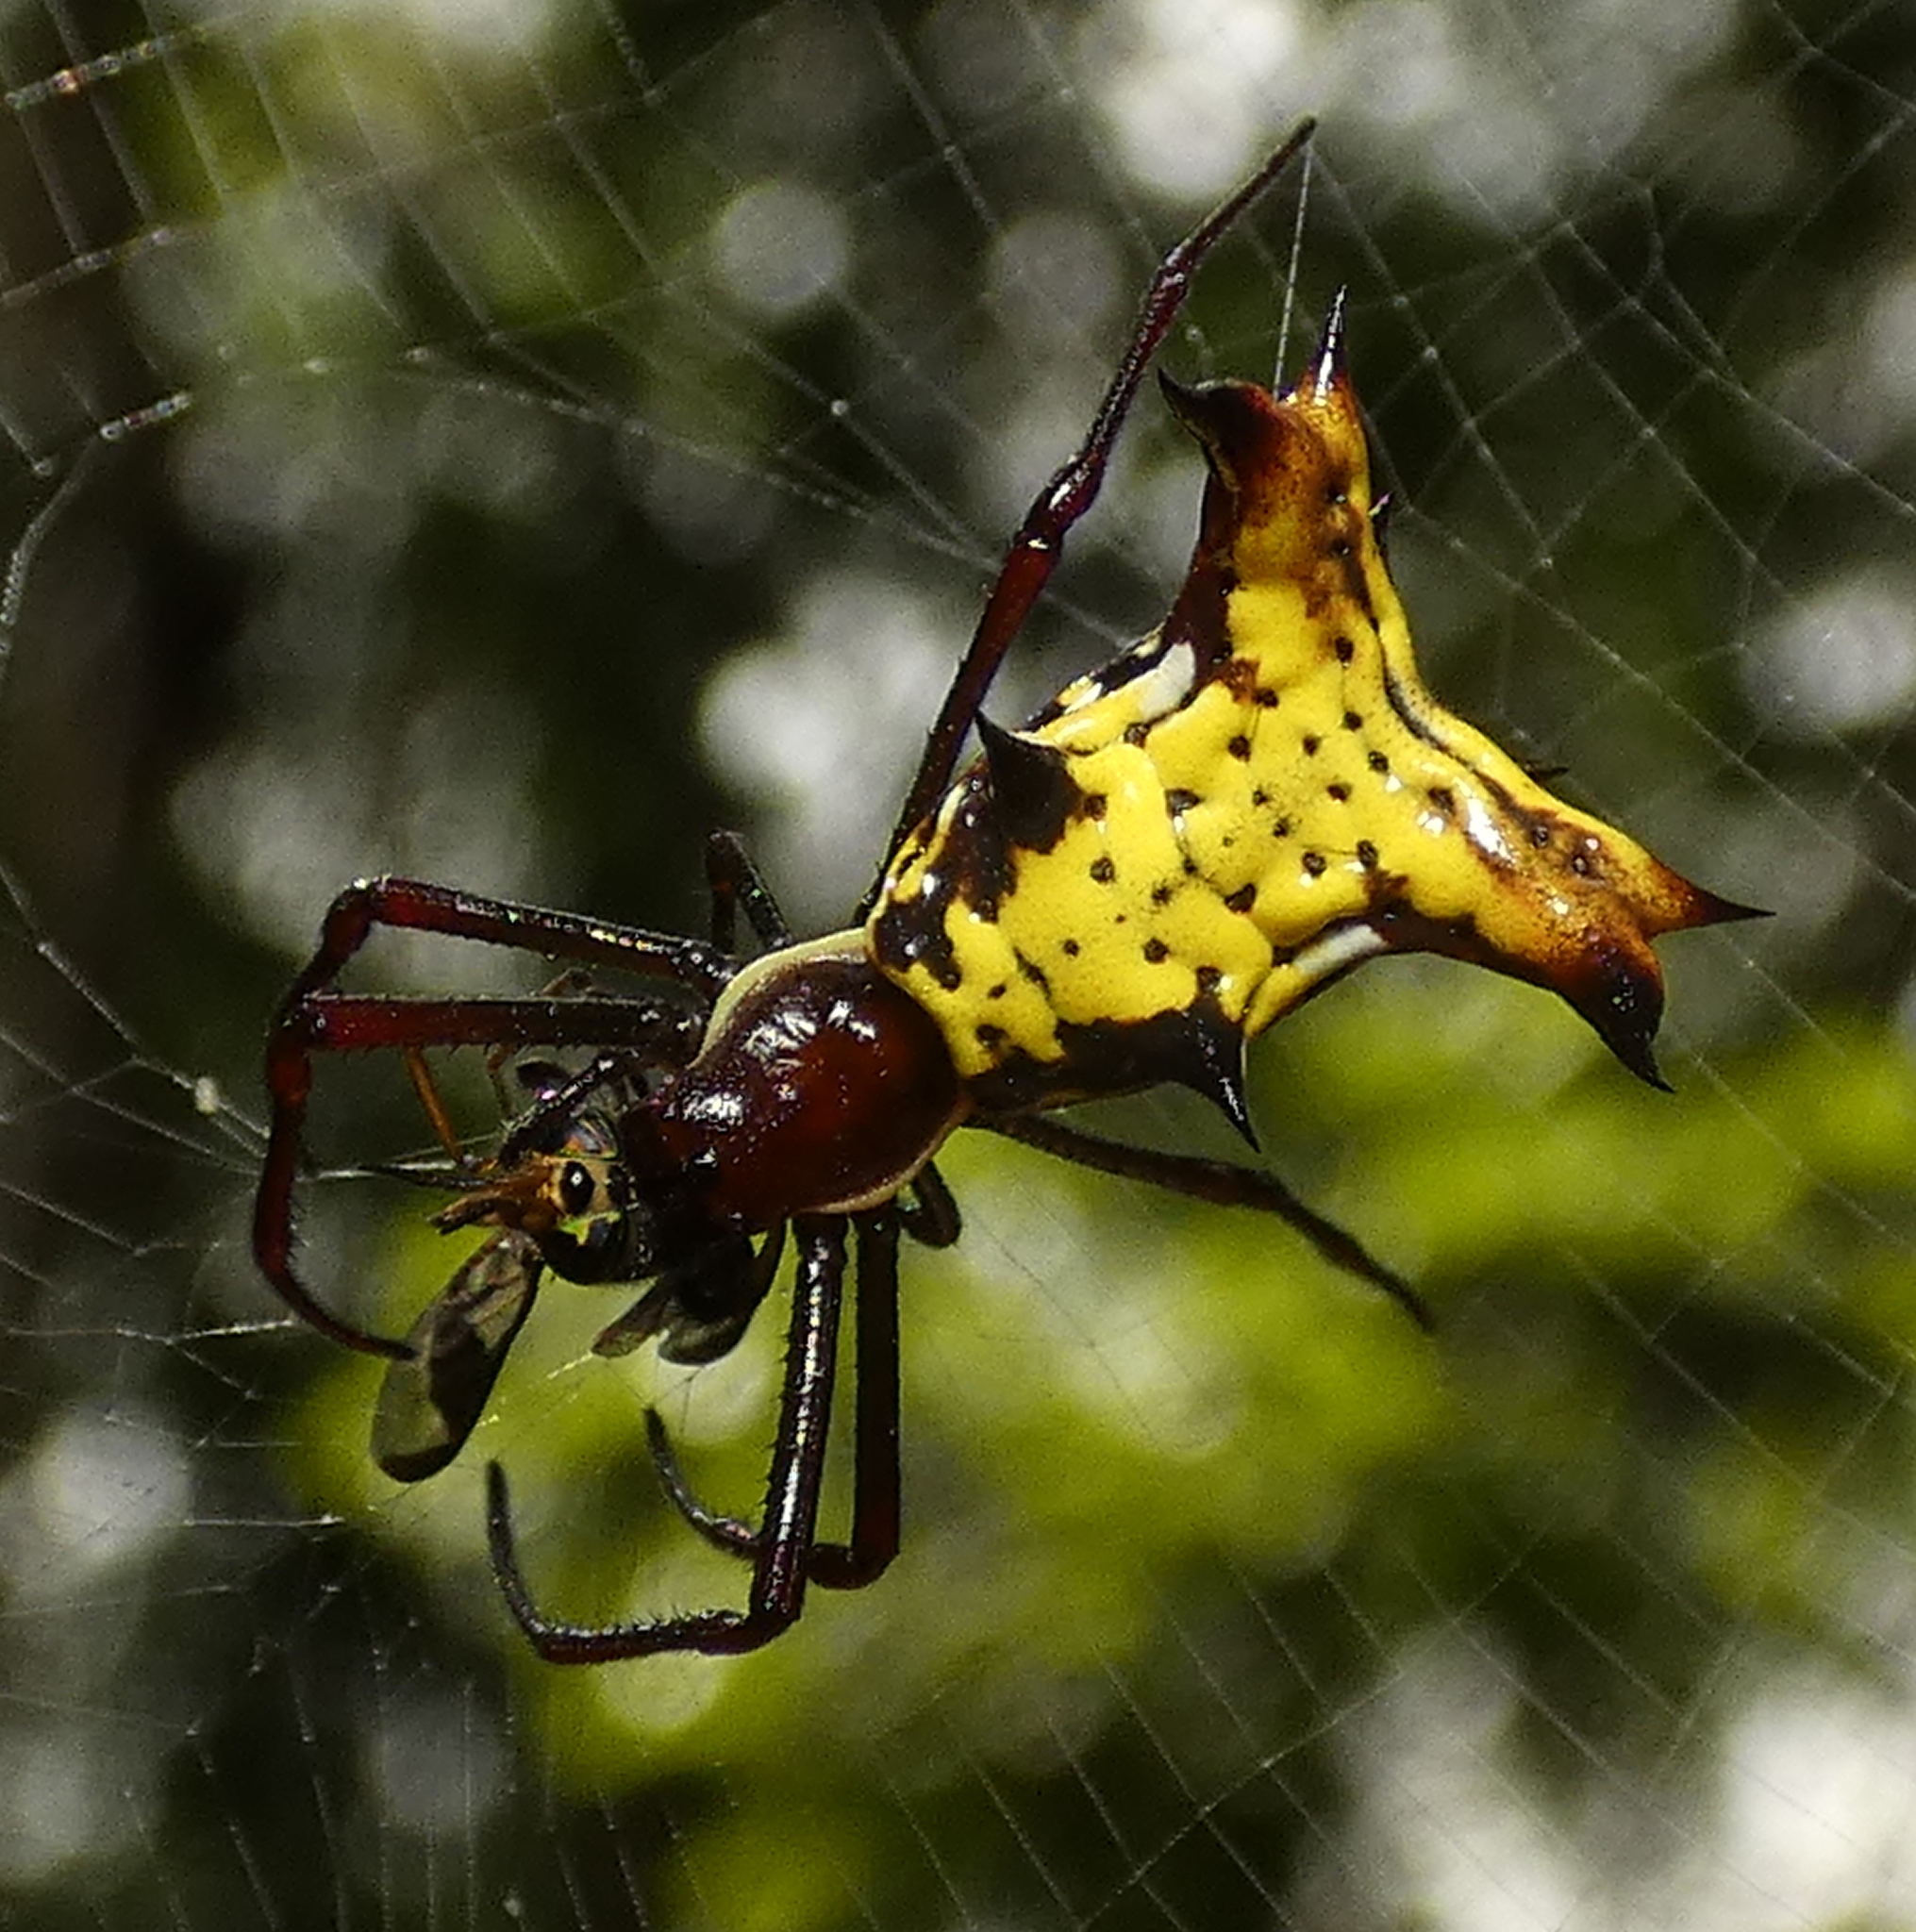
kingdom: Animalia
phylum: Arthropoda
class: Arachnida
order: Araneae
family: Araneidae
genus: Micrathena
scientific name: Micrathena fissispina
